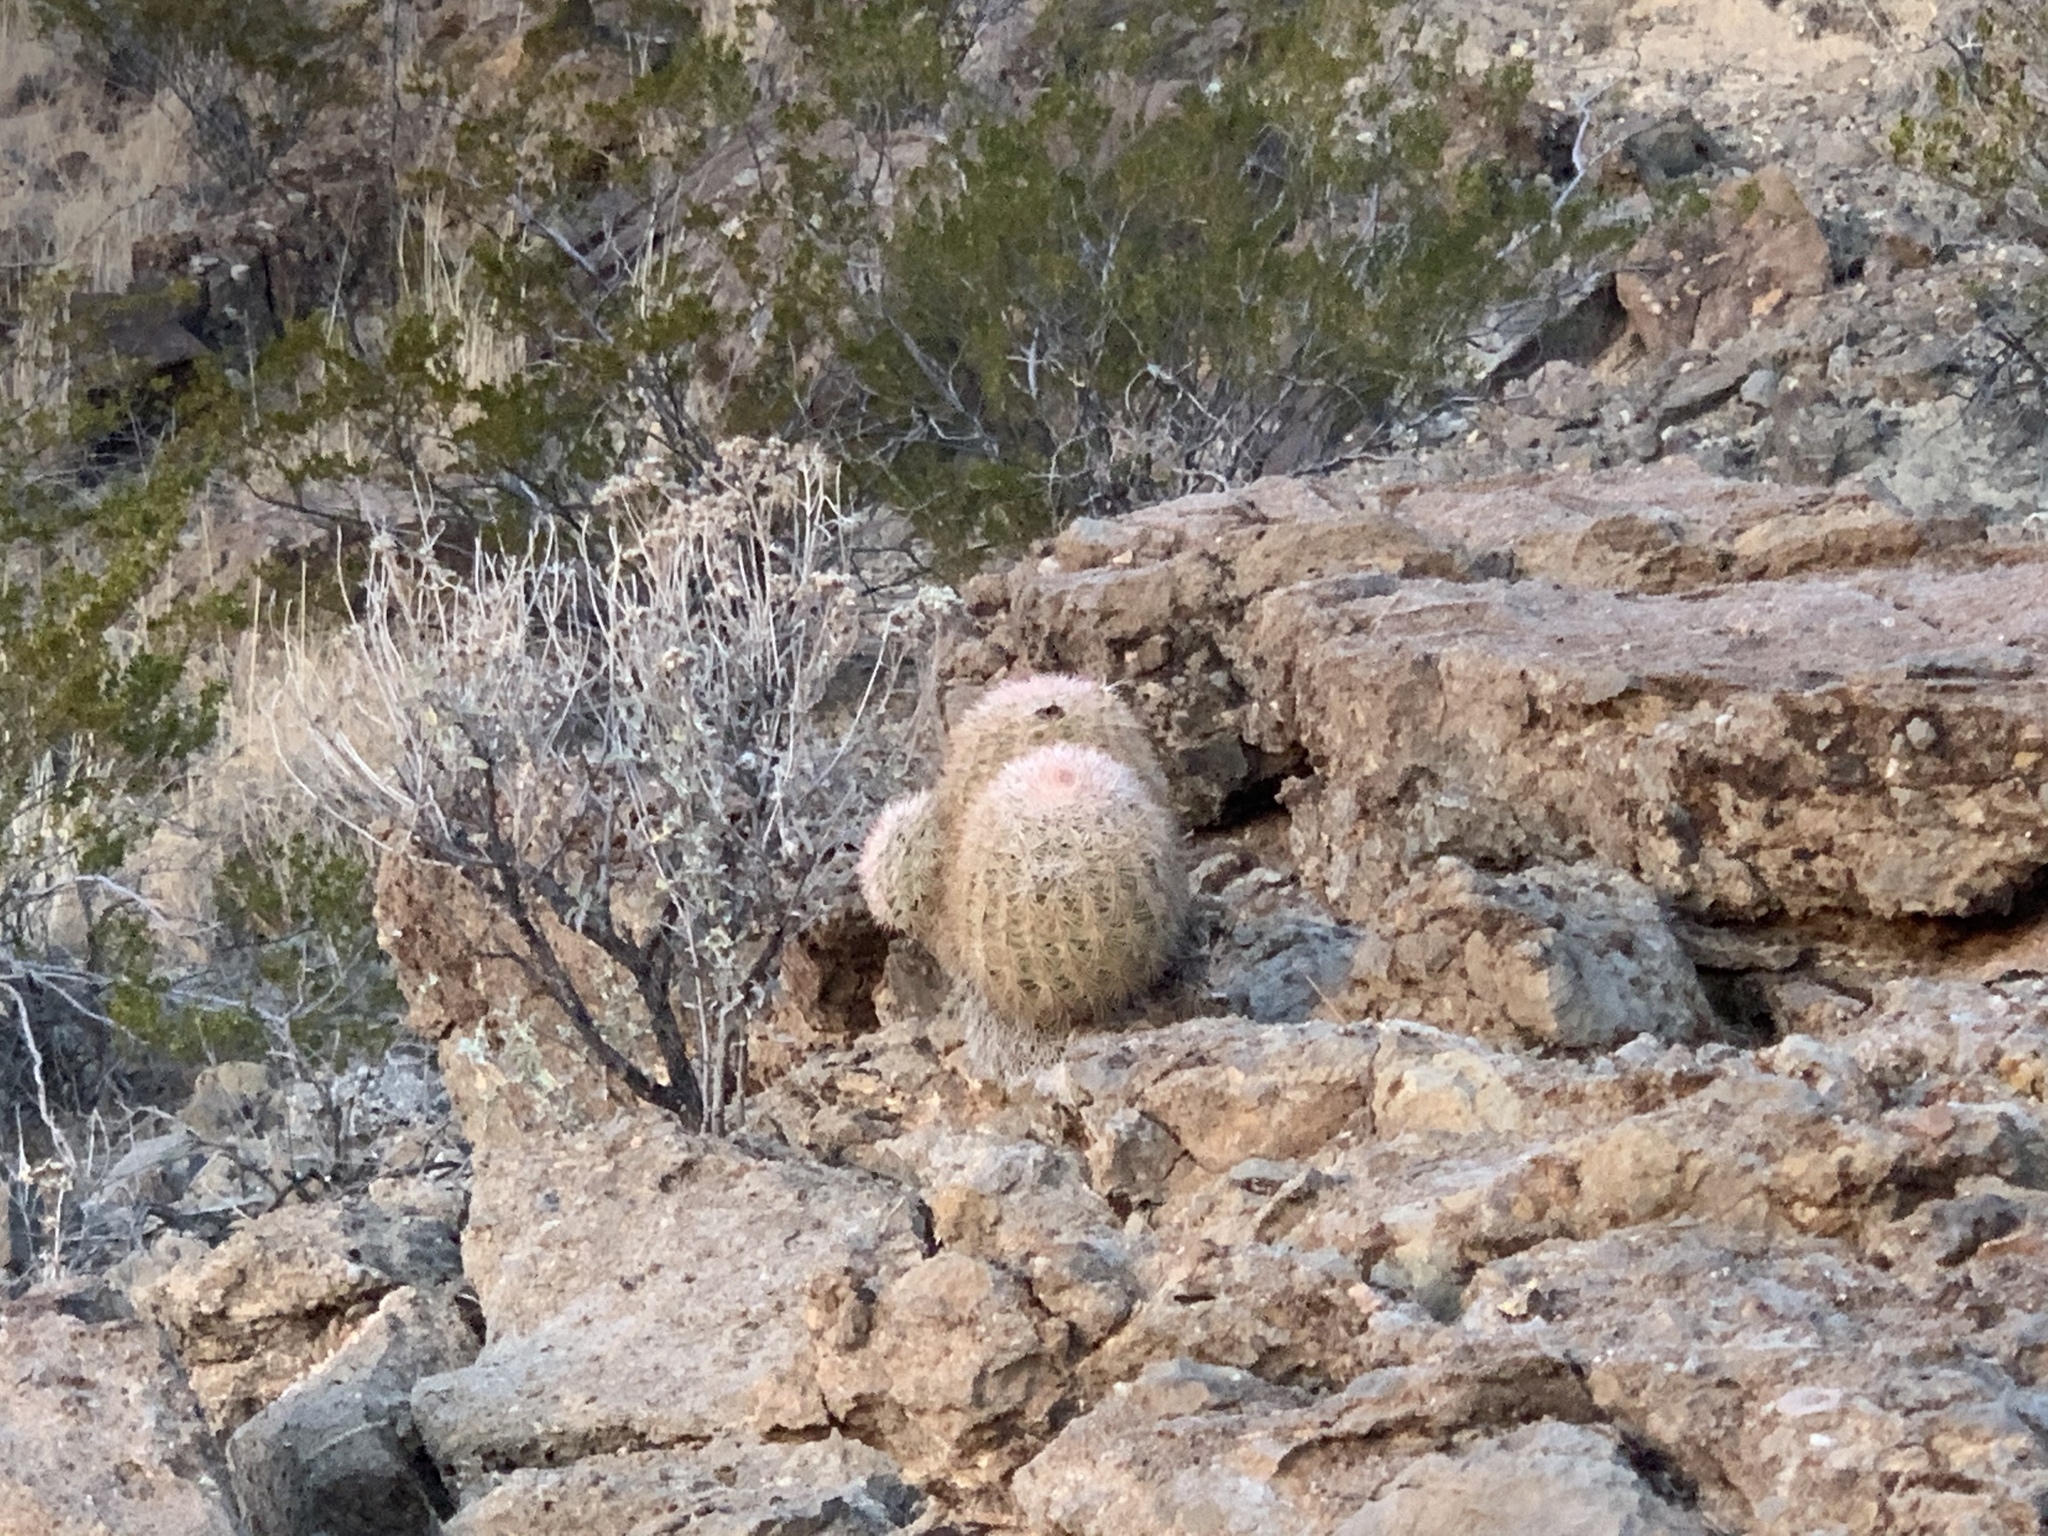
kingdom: Plantae
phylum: Tracheophyta
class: Magnoliopsida
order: Caryophyllales
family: Cactaceae
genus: Echinocereus
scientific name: Echinocereus dasyacanthus
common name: Spiny hedgehog cactus
